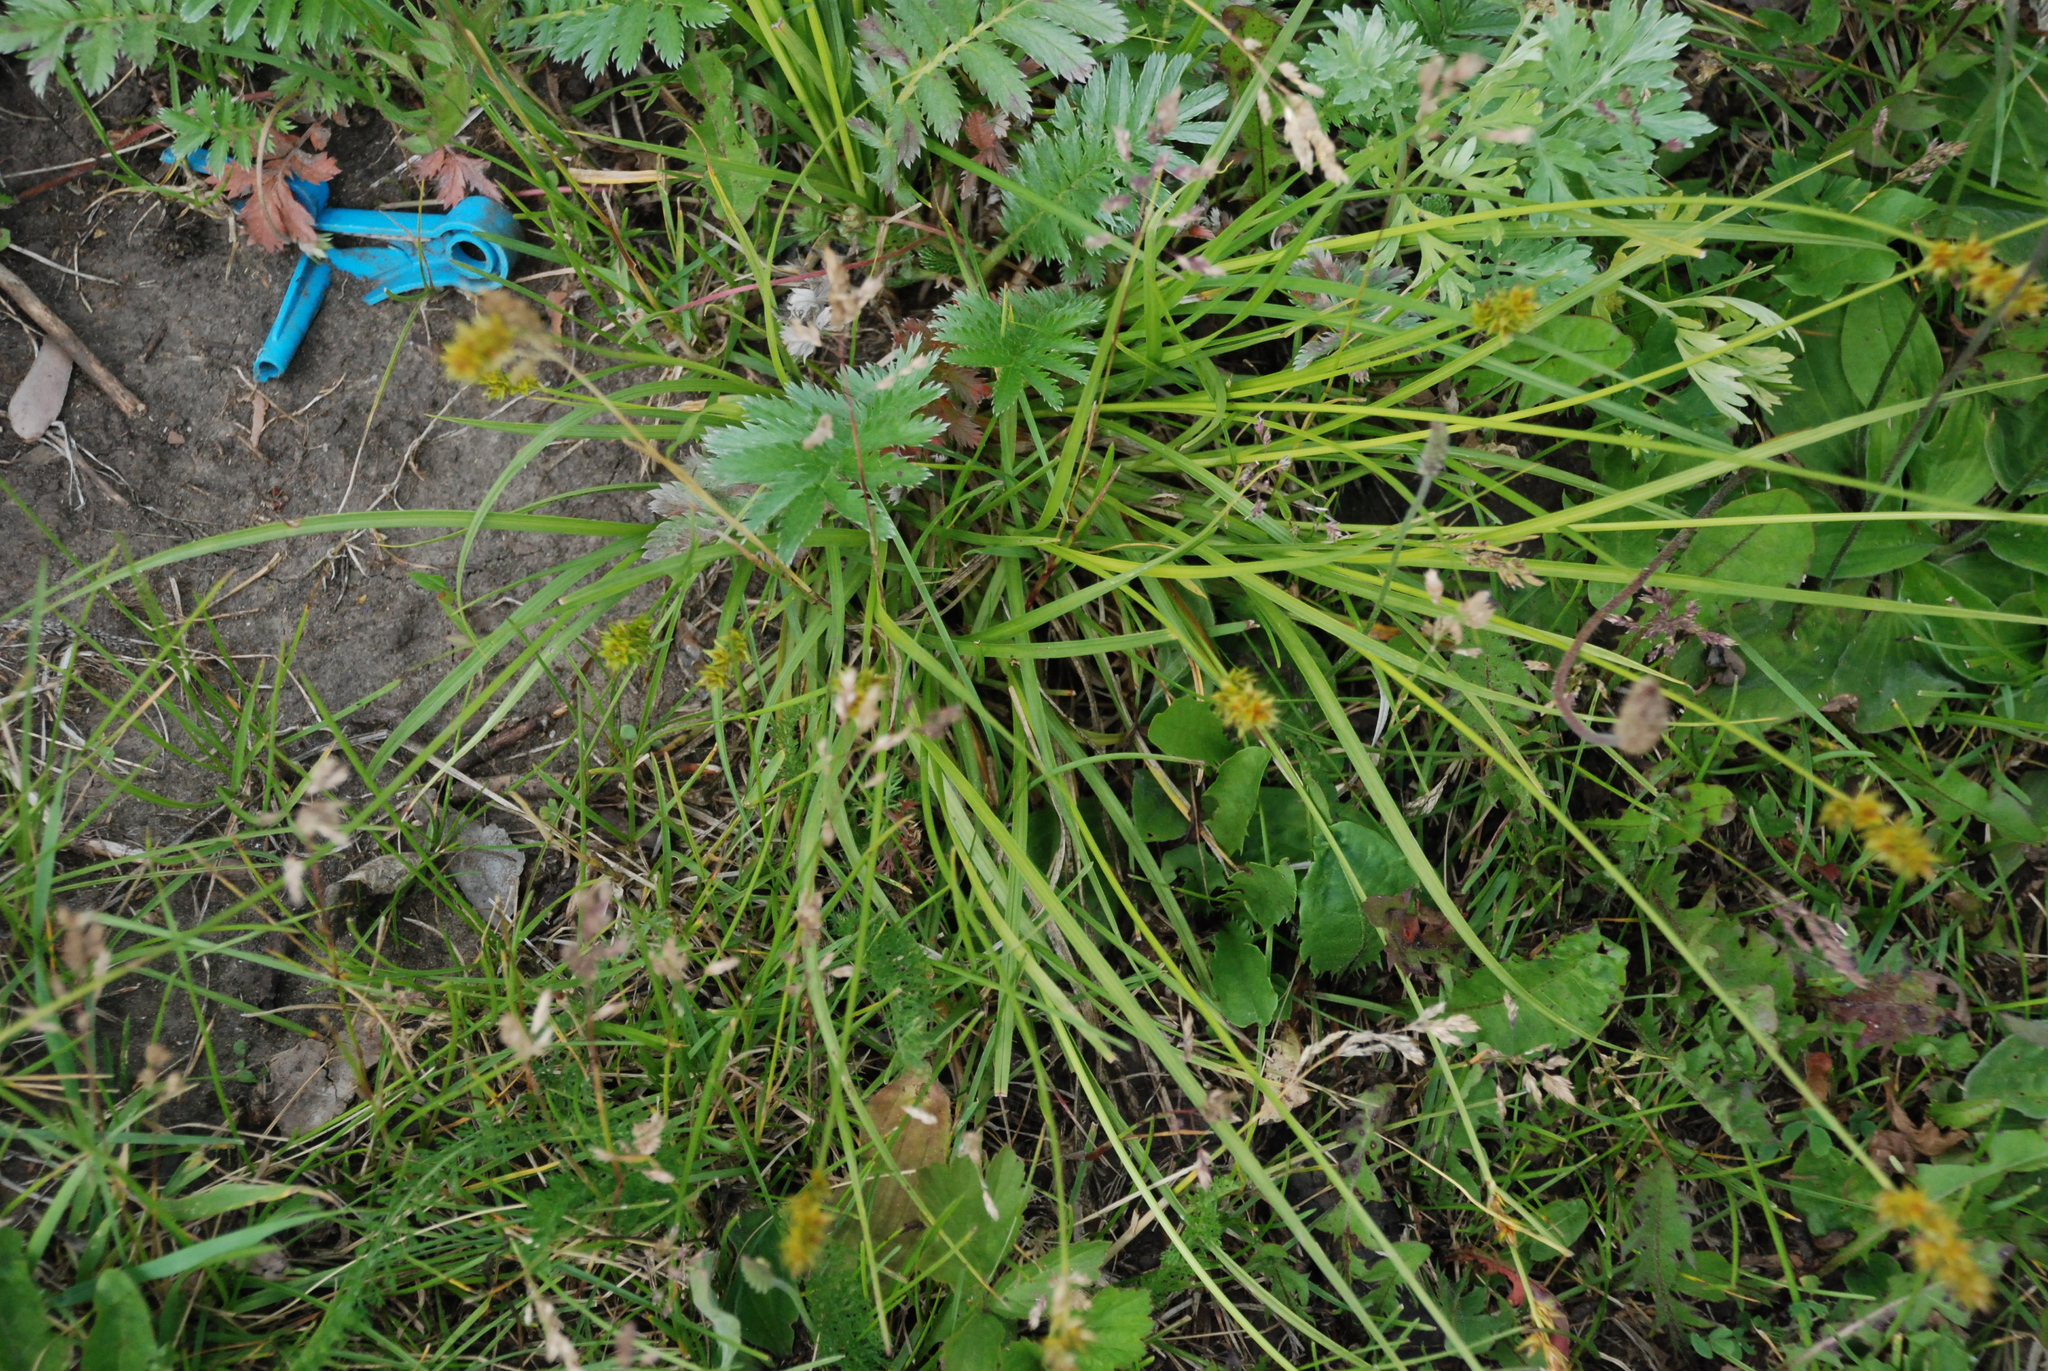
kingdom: Plantae
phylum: Tracheophyta
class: Liliopsida
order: Poales
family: Cyperaceae
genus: Carex
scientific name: Carex muricata
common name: Rough sedge
